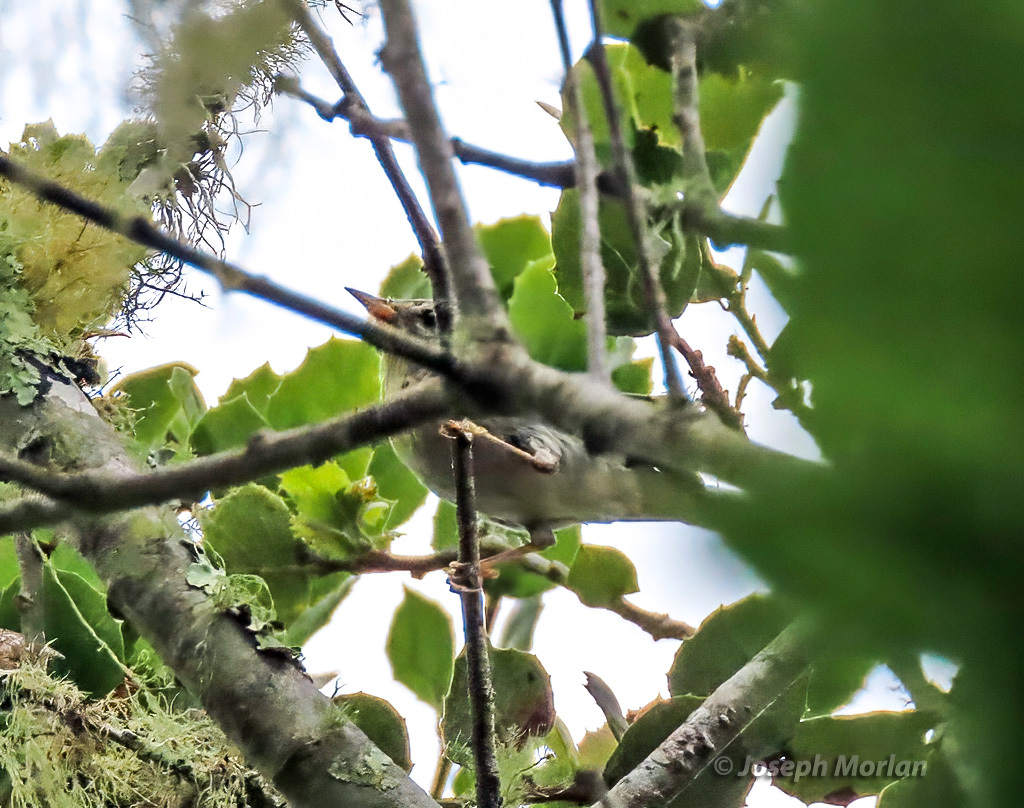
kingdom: Animalia
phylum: Chordata
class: Aves
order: Passeriformes
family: Parulidae
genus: Setophaga
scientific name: Setophaga americana
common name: Northern parula
